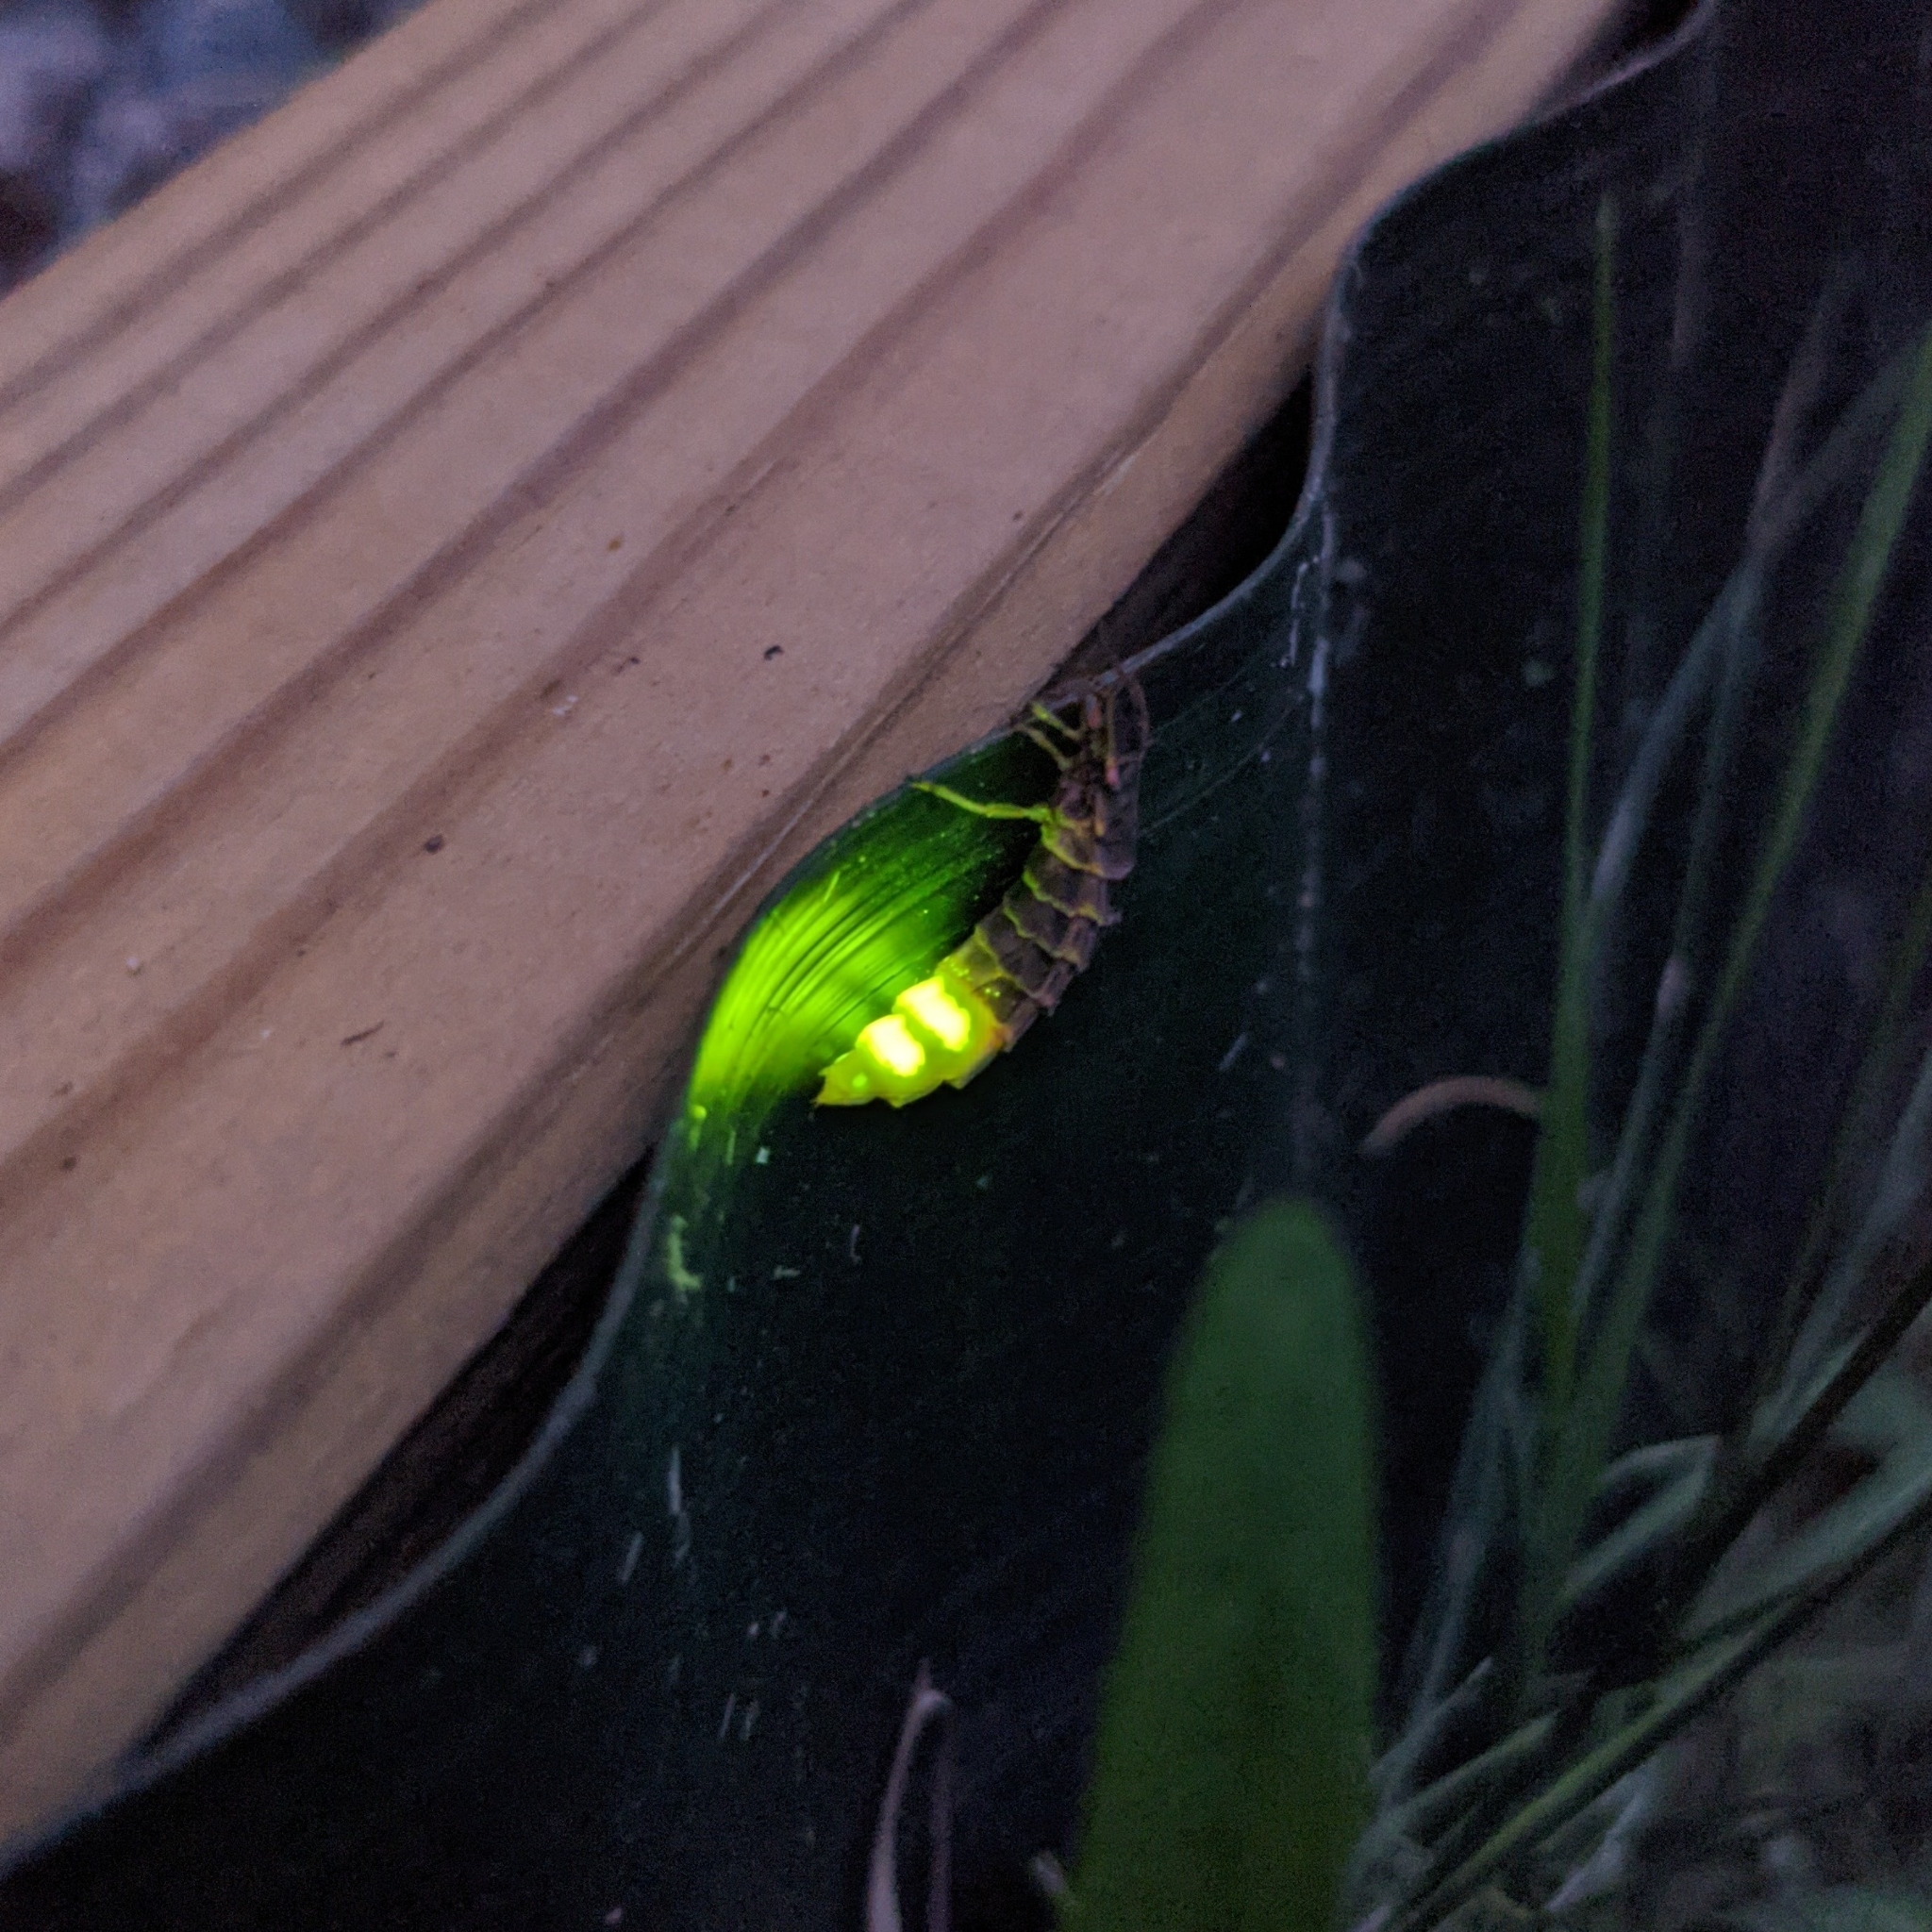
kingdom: Animalia
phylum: Arthropoda
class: Insecta
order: Coleoptera
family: Lampyridae
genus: Lampyris
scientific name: Lampyris noctiluca
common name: Glow-worm
